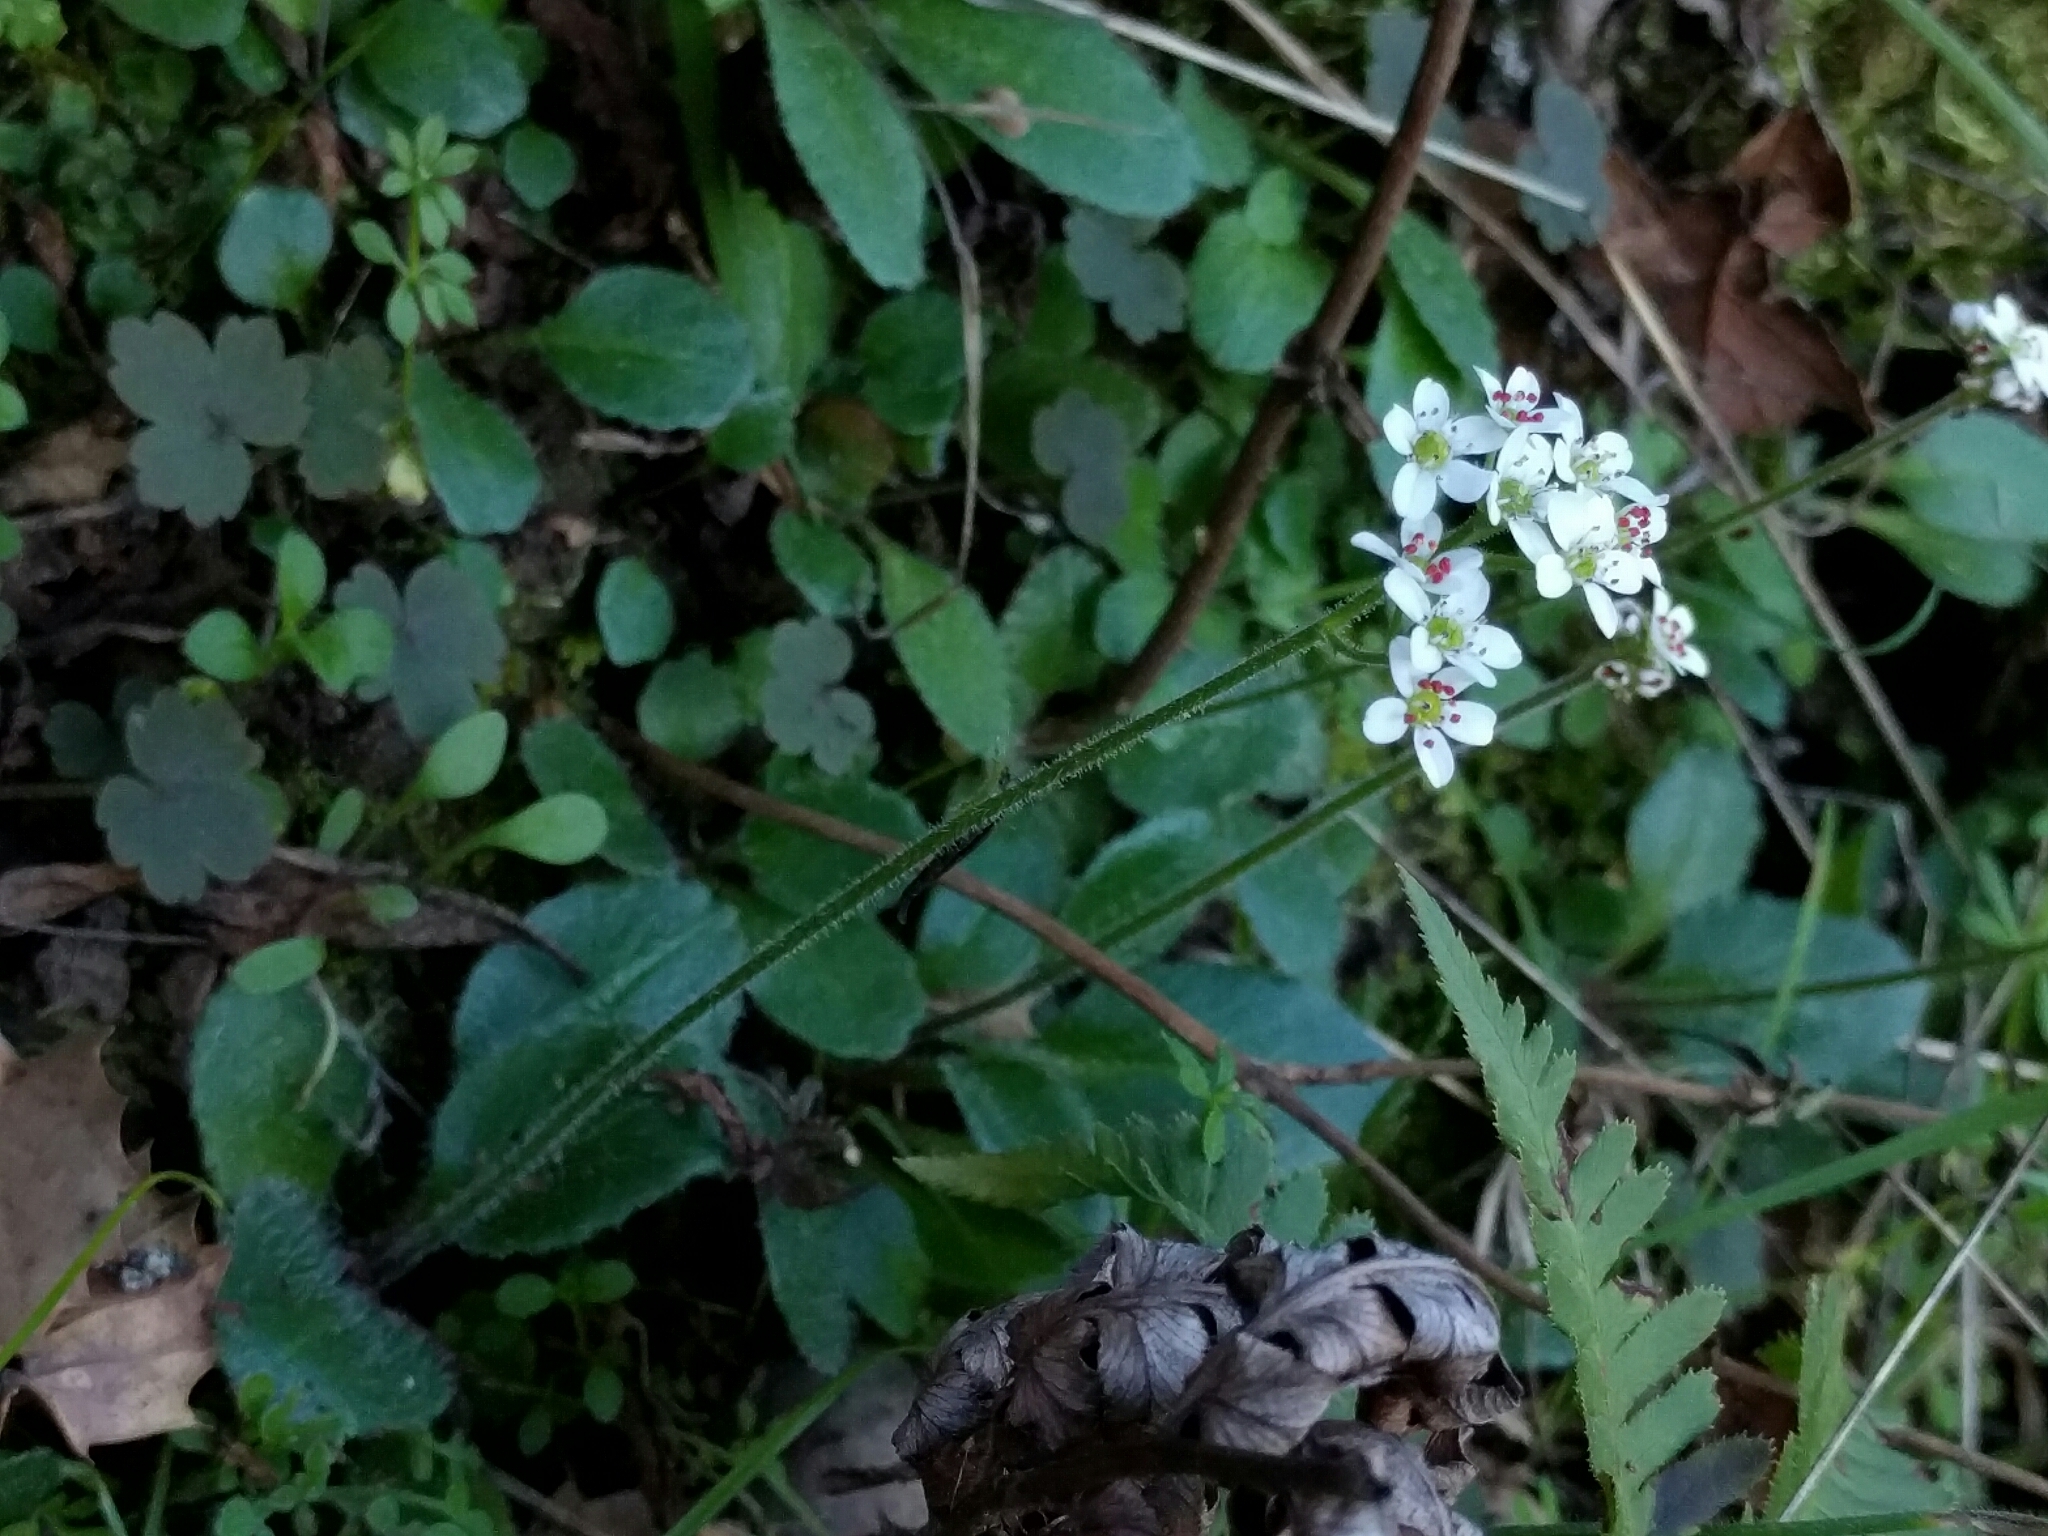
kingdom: Plantae
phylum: Tracheophyta
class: Magnoliopsida
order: Saxifragales
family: Saxifragaceae
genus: Micranthes
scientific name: Micranthes californica
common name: California saxifrage
